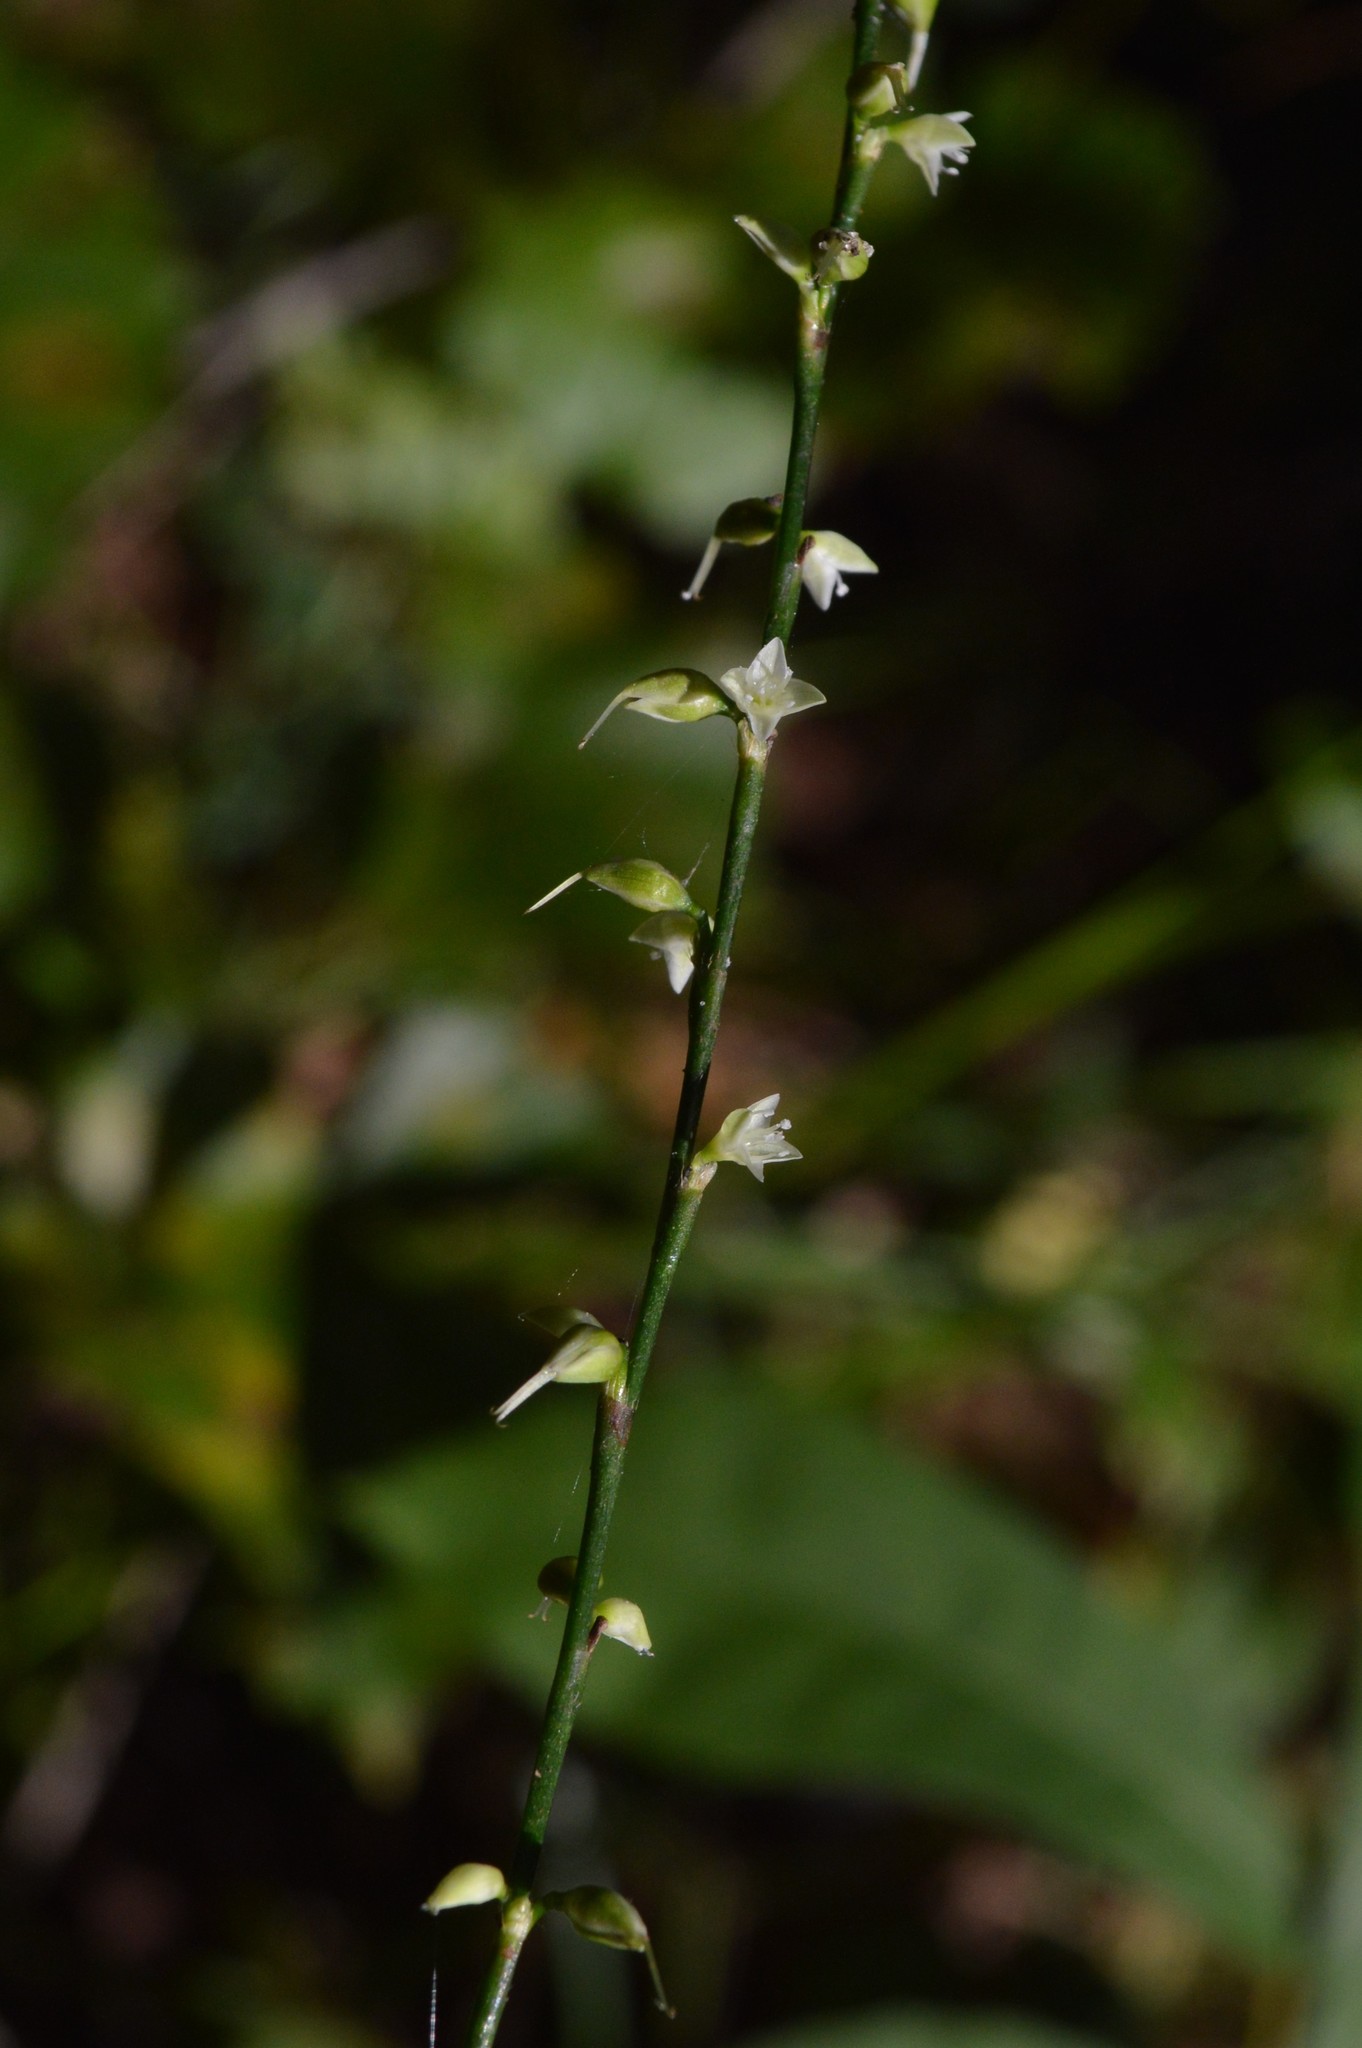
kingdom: Plantae
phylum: Tracheophyta
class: Magnoliopsida
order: Caryophyllales
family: Polygonaceae
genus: Persicaria
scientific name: Persicaria virginiana
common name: Jumpseed
